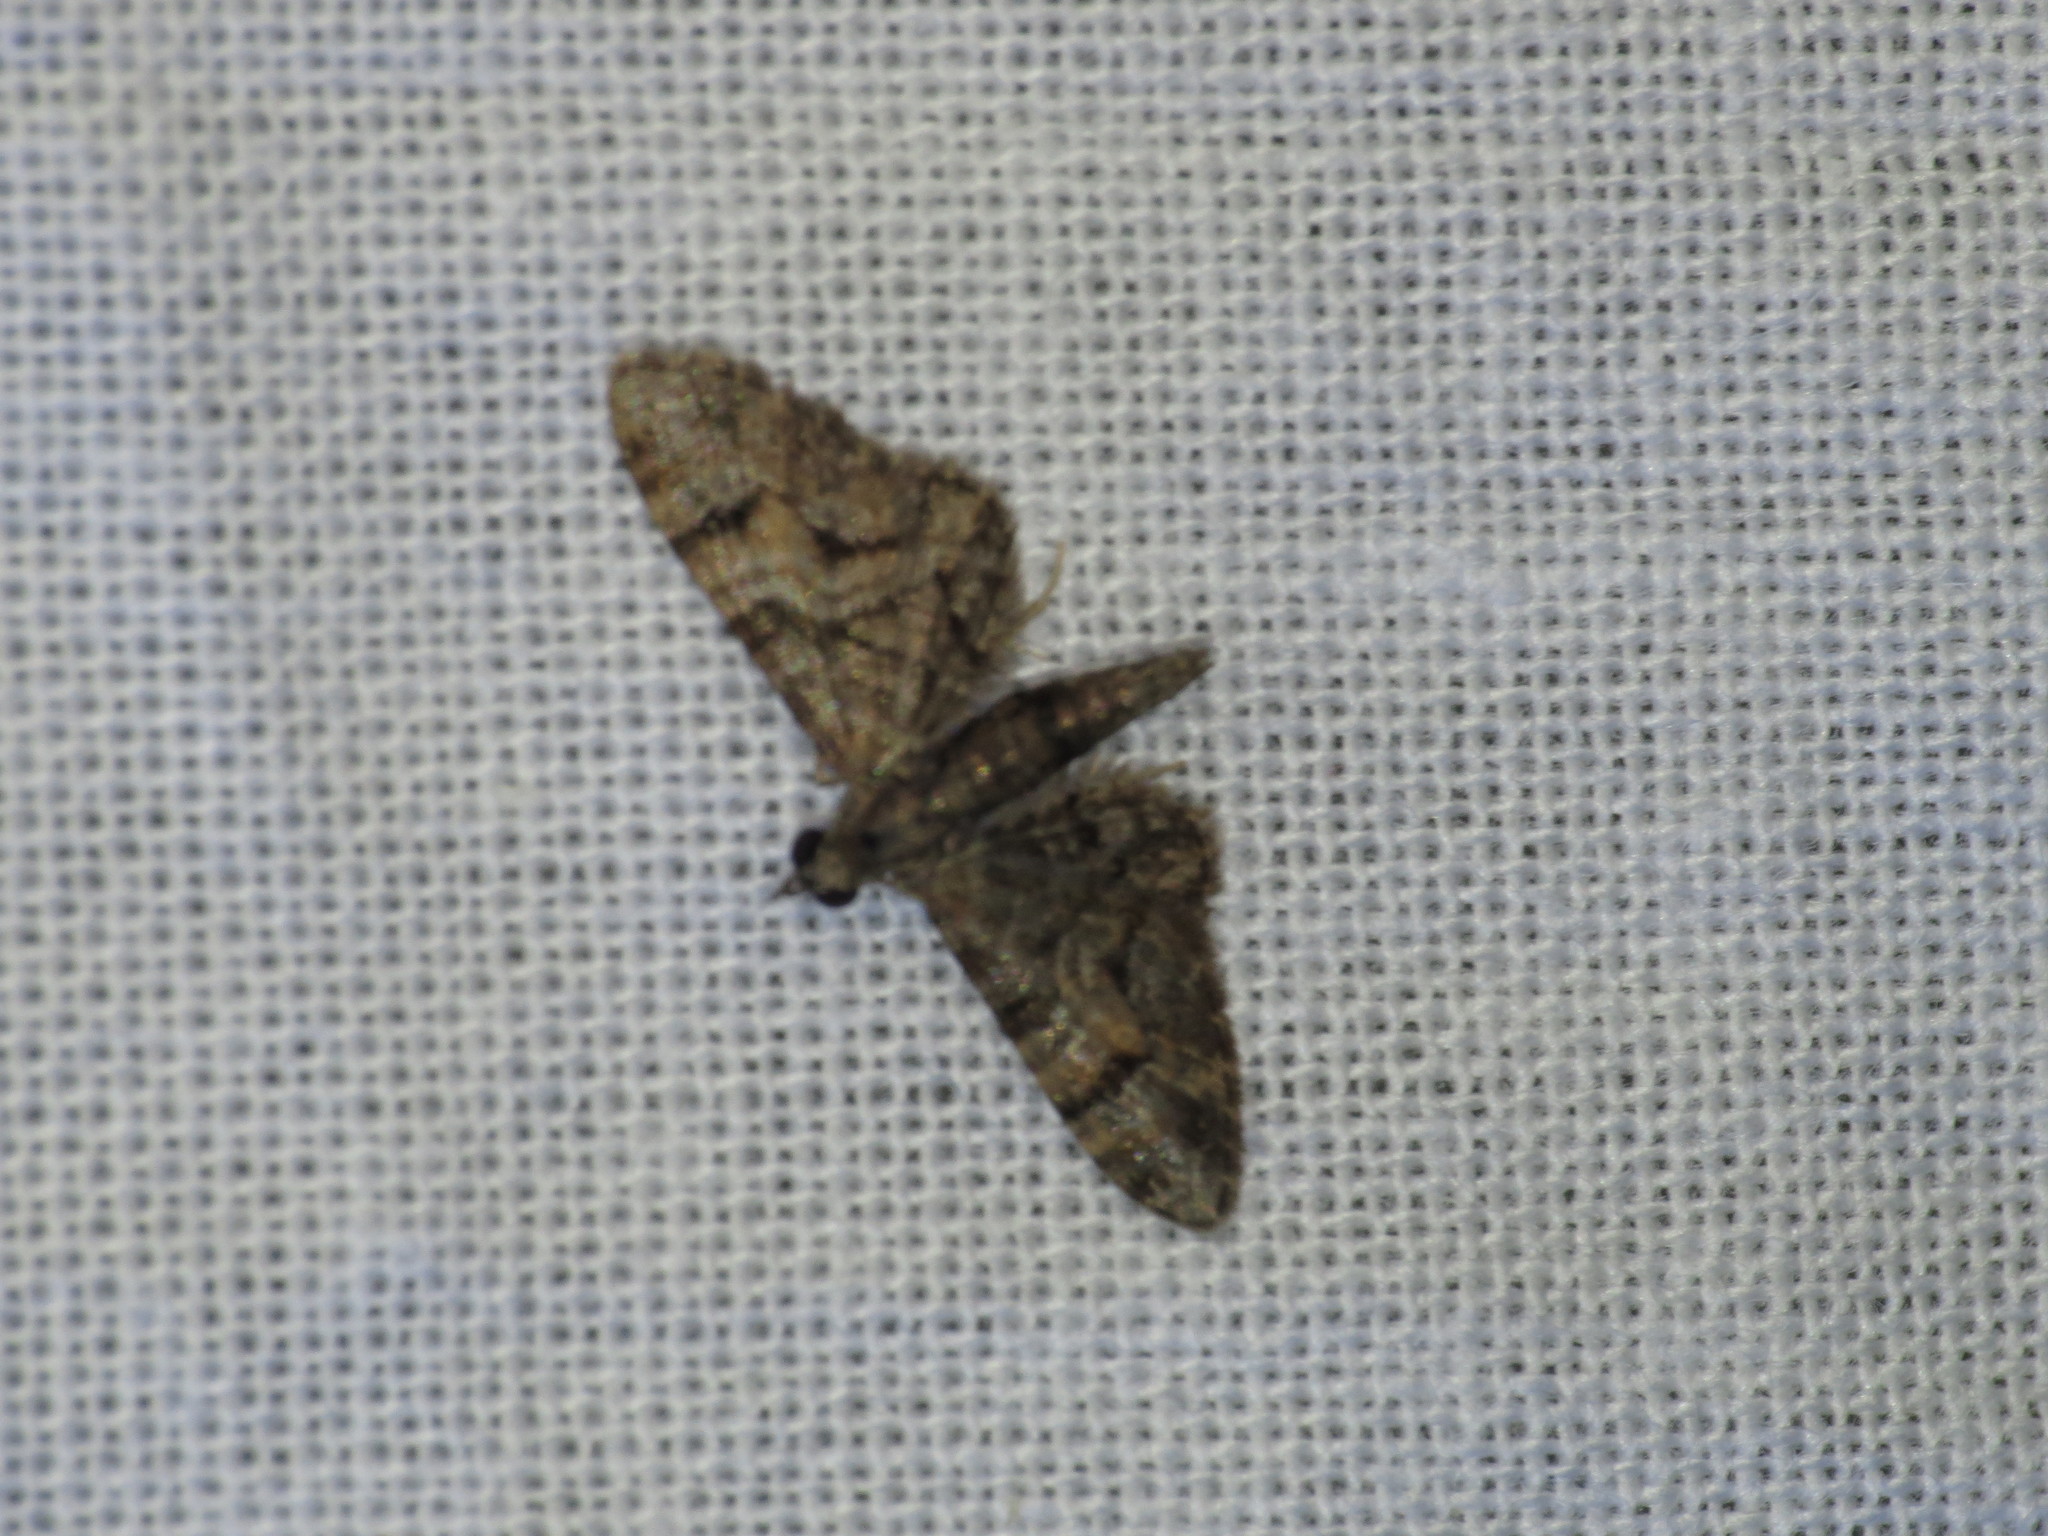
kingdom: Animalia
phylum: Arthropoda
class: Insecta
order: Lepidoptera
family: Geometridae
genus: Chloroclystis
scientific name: Chloroclystis metallospora
